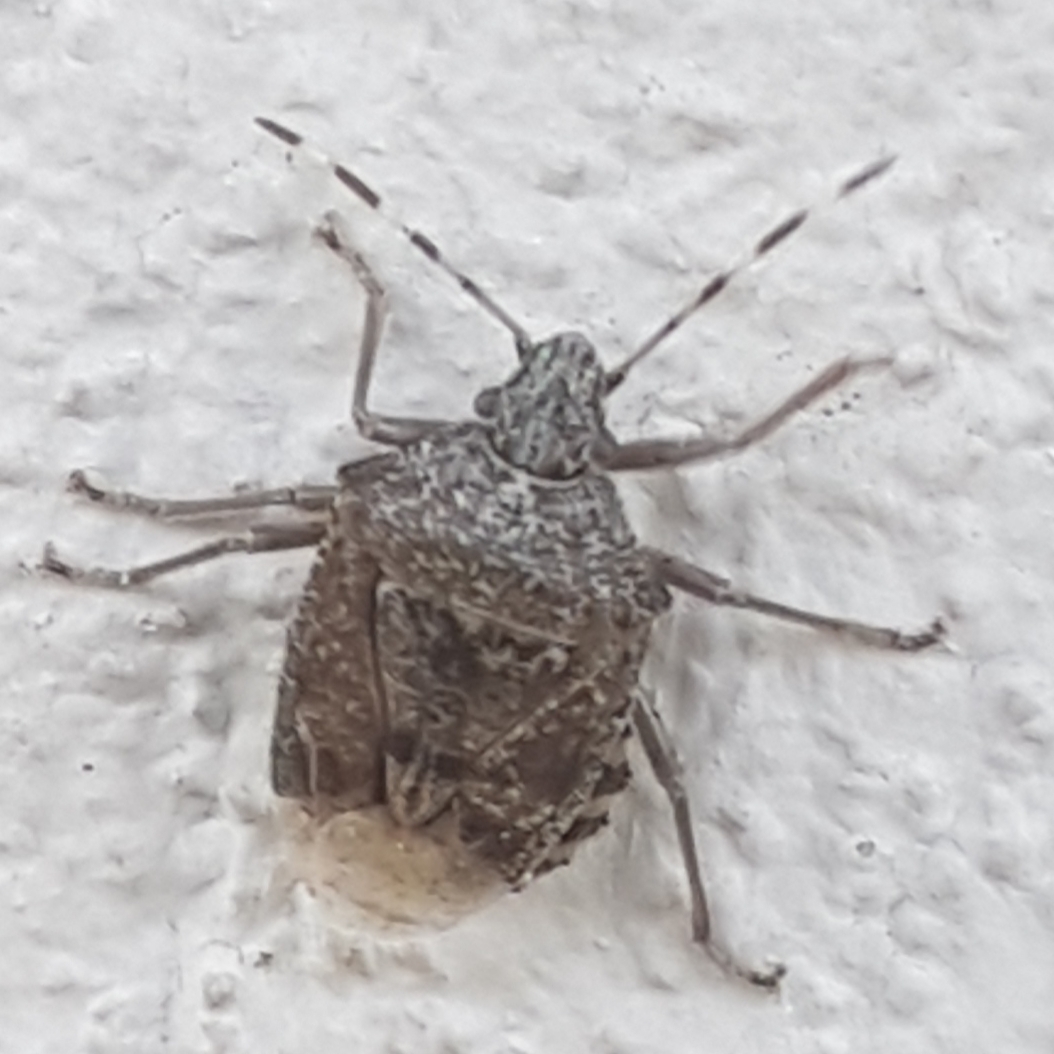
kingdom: Animalia
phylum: Arthropoda
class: Insecta
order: Hemiptera
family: Pentatomidae
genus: Rhaphigaster
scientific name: Rhaphigaster nebulosa
